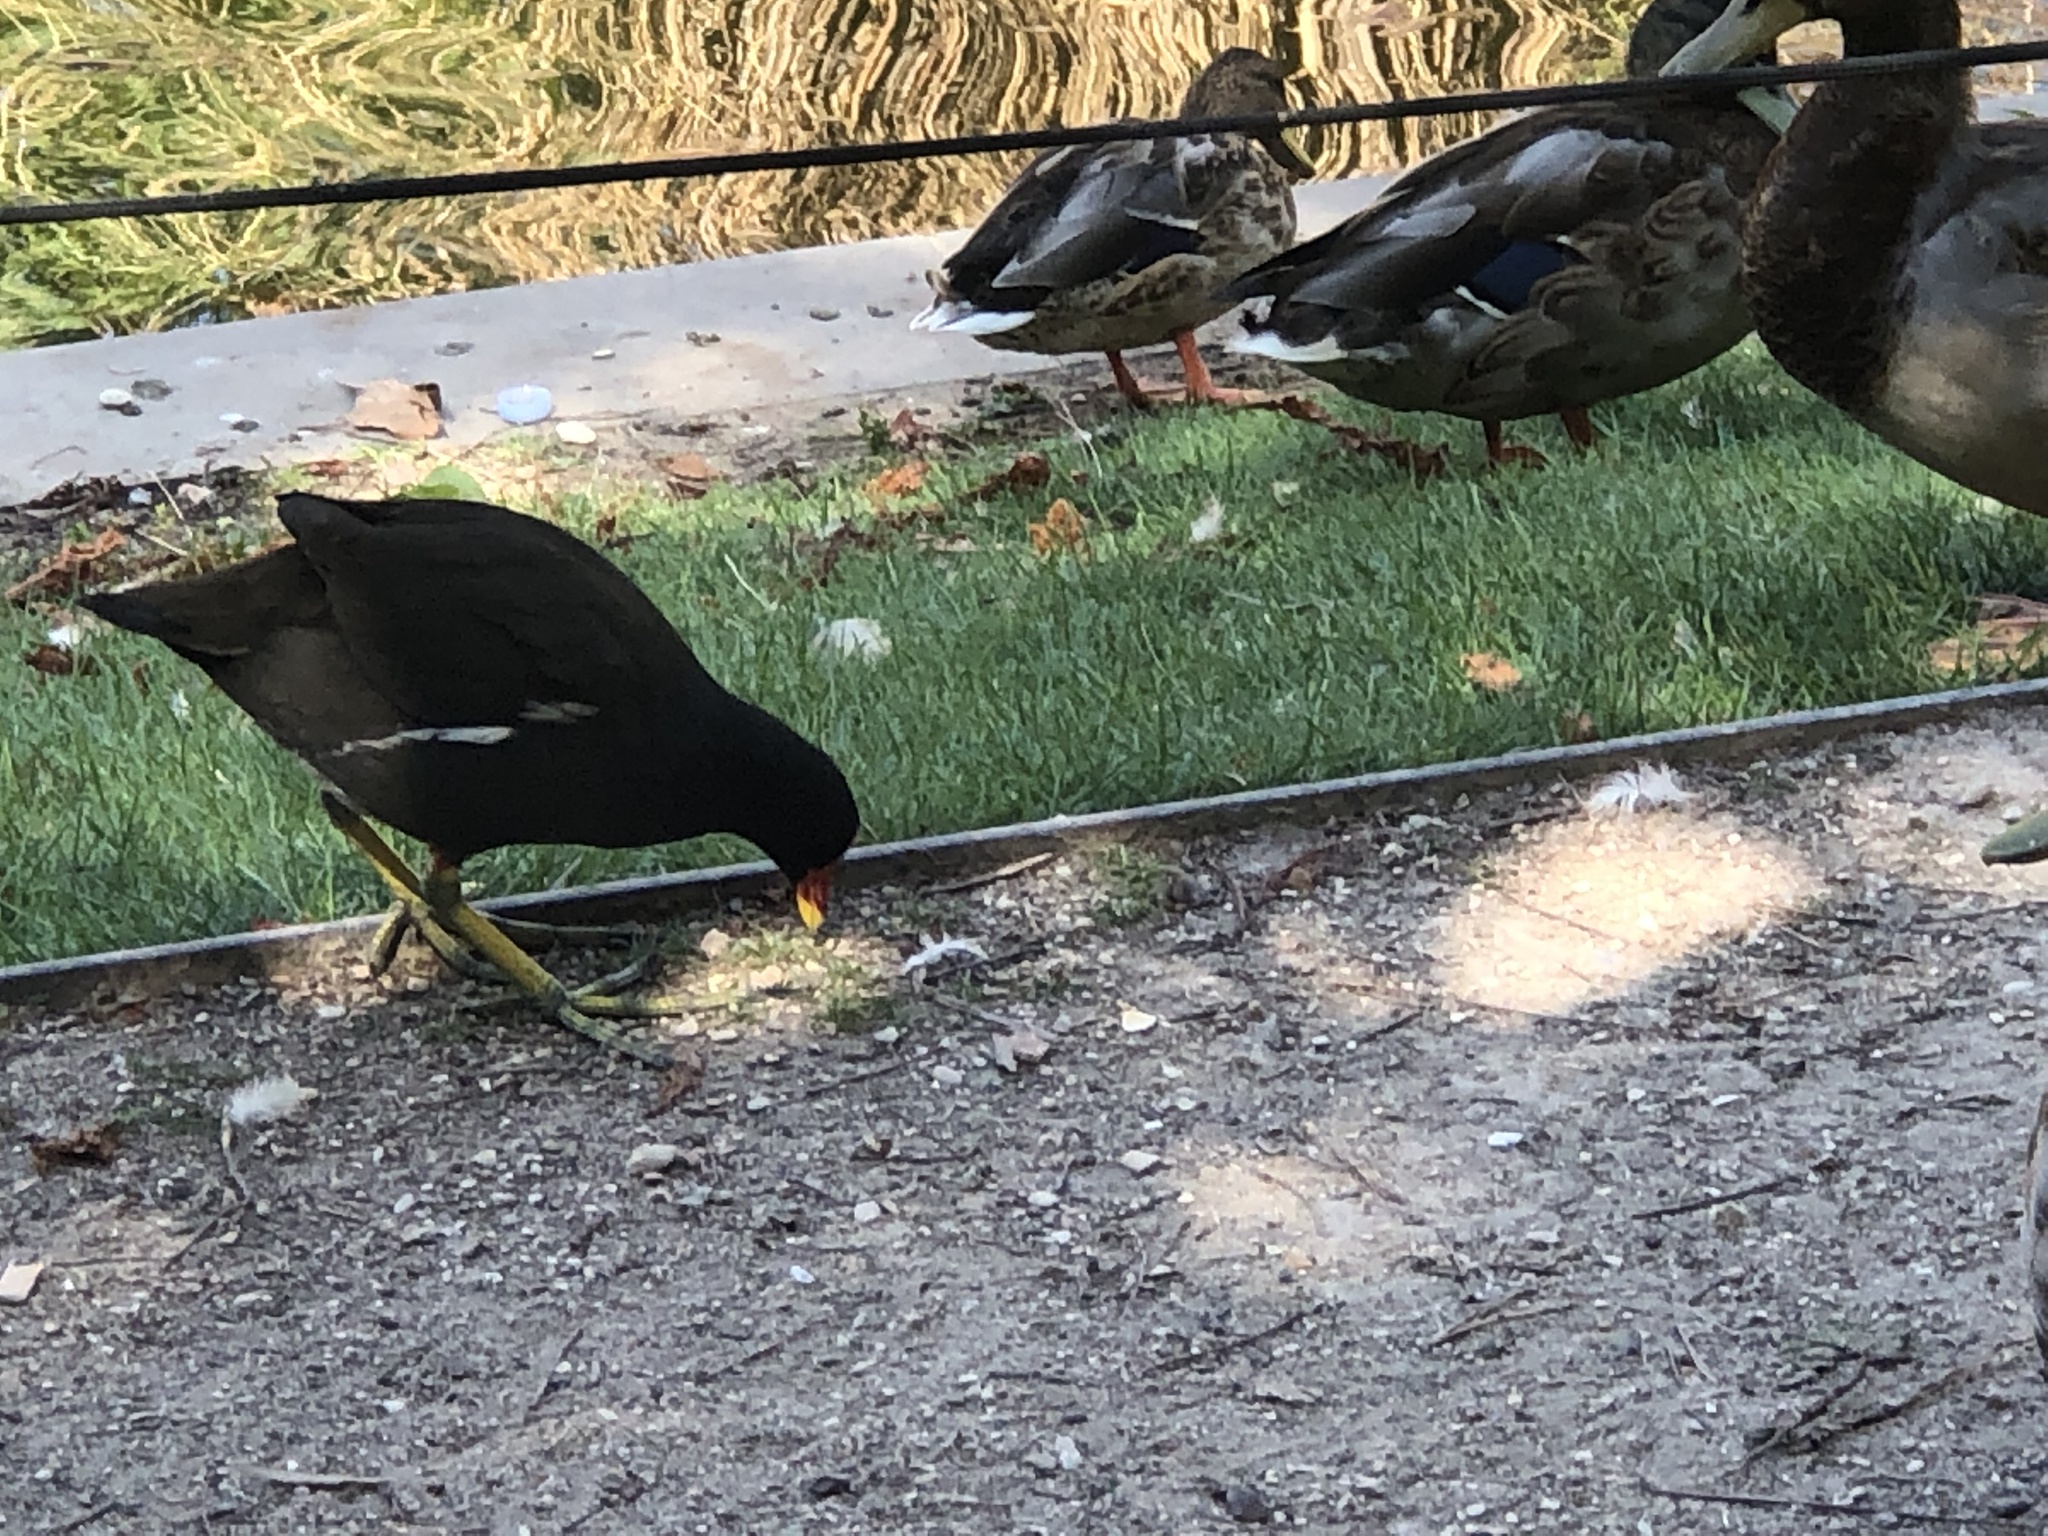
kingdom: Animalia
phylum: Chordata
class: Aves
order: Gruiformes
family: Rallidae
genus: Gallinula
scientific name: Gallinula chloropus
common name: Common moorhen
